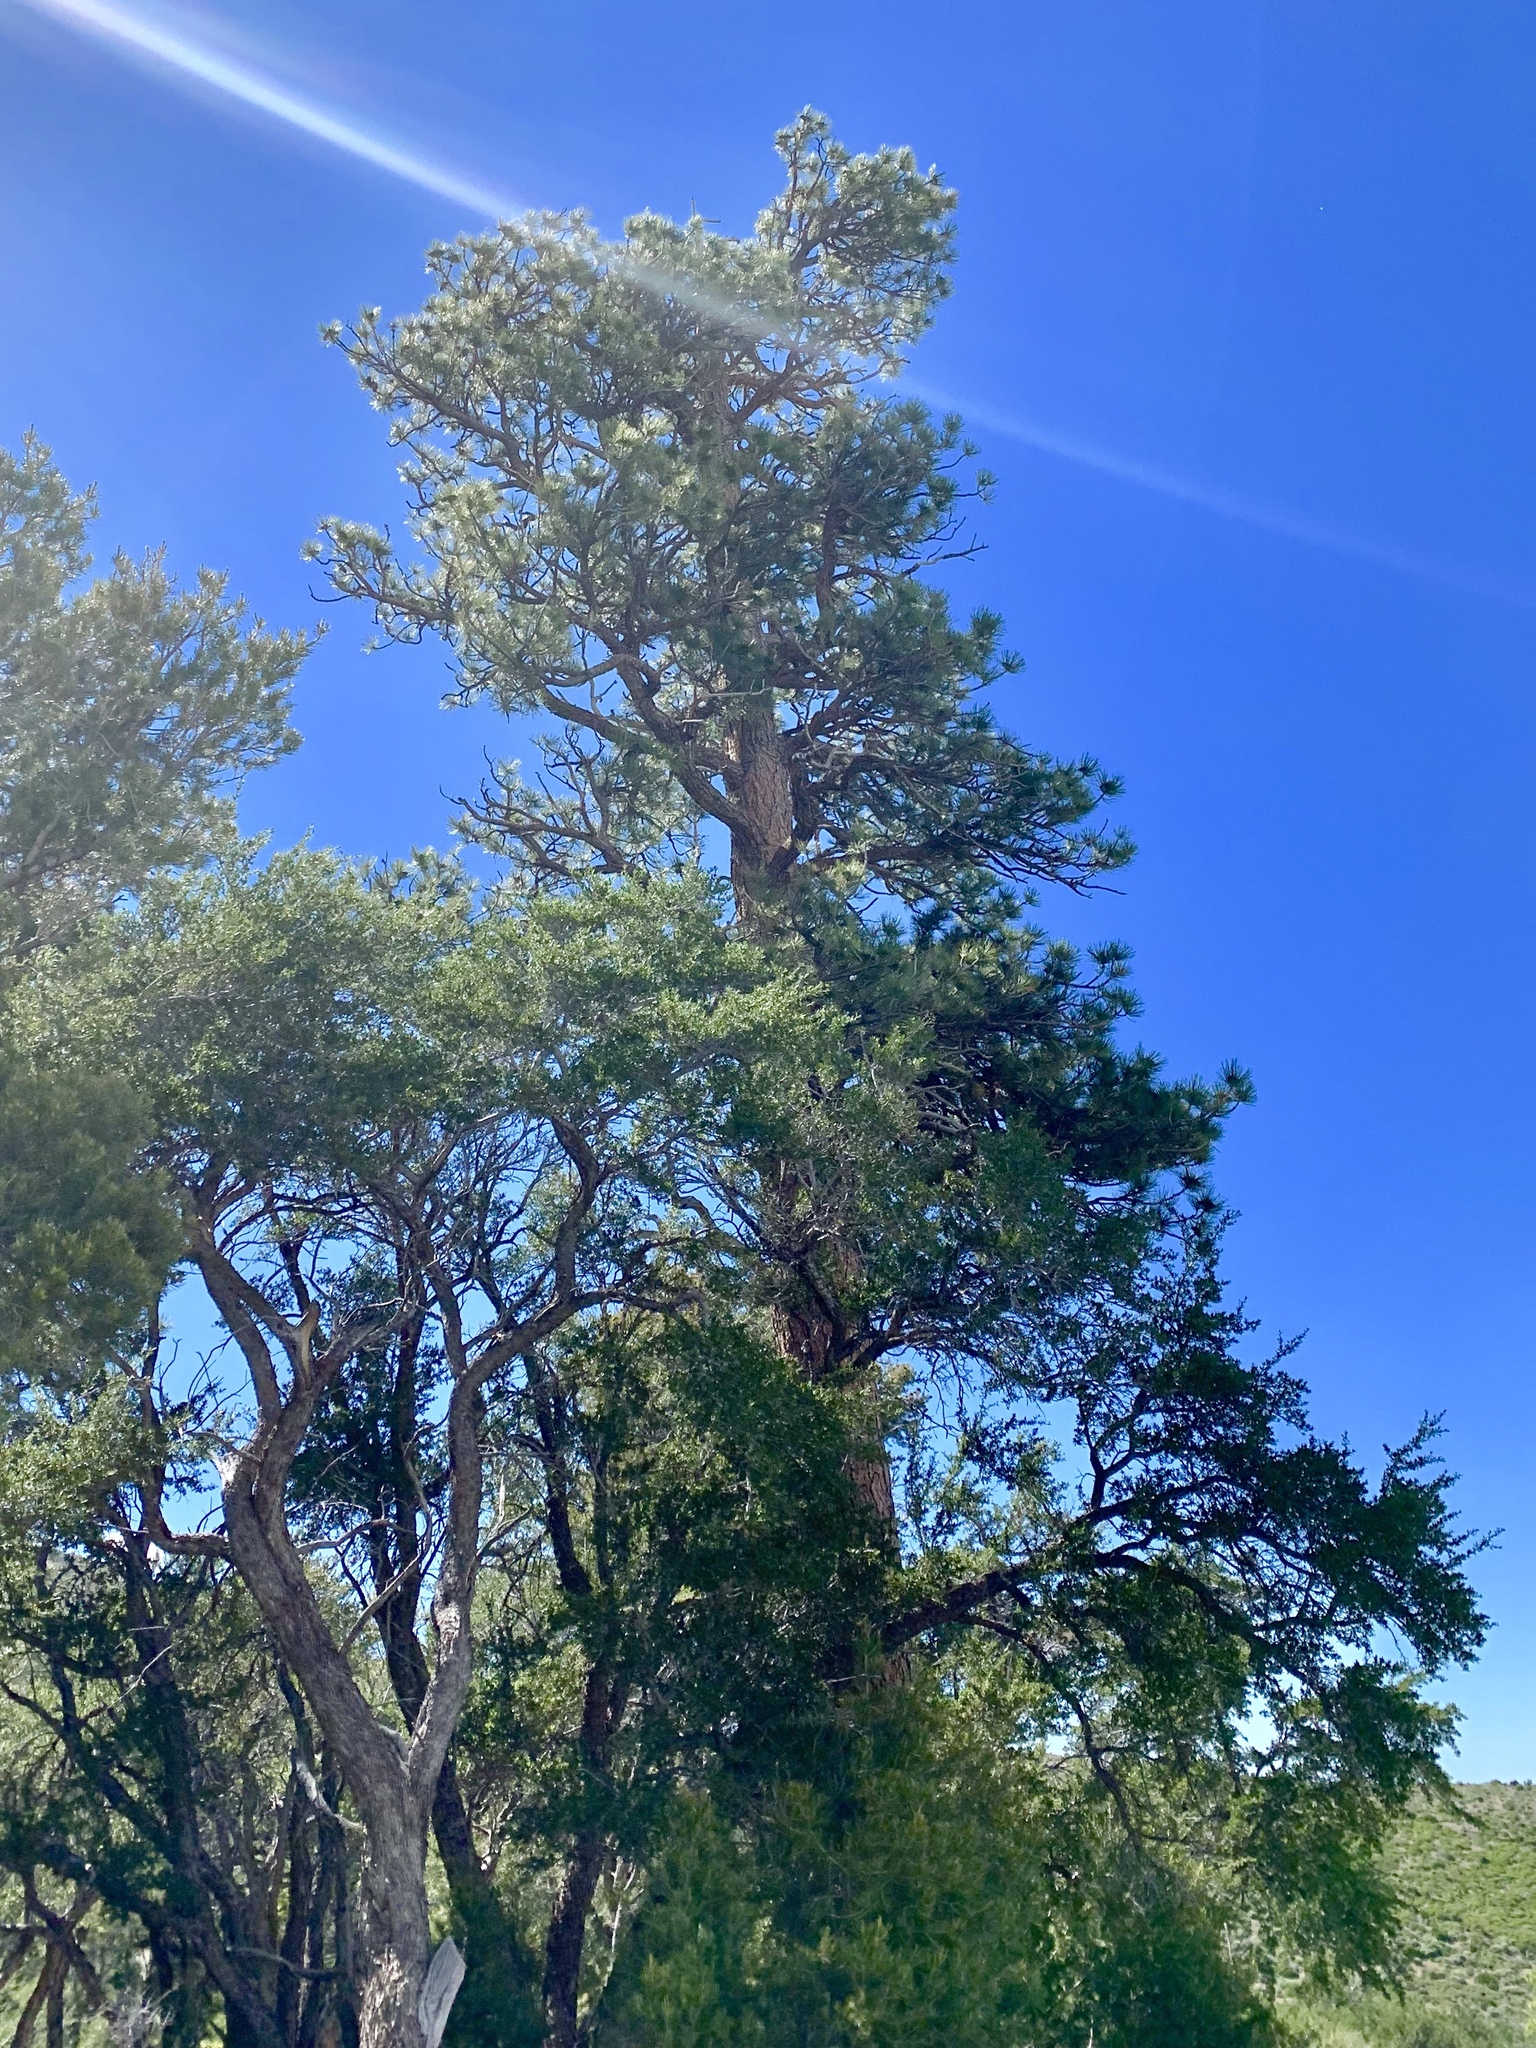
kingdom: Plantae
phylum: Tracheophyta
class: Pinopsida
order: Pinales
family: Pinaceae
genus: Pinus
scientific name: Pinus ponderosa
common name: Western yellow-pine
